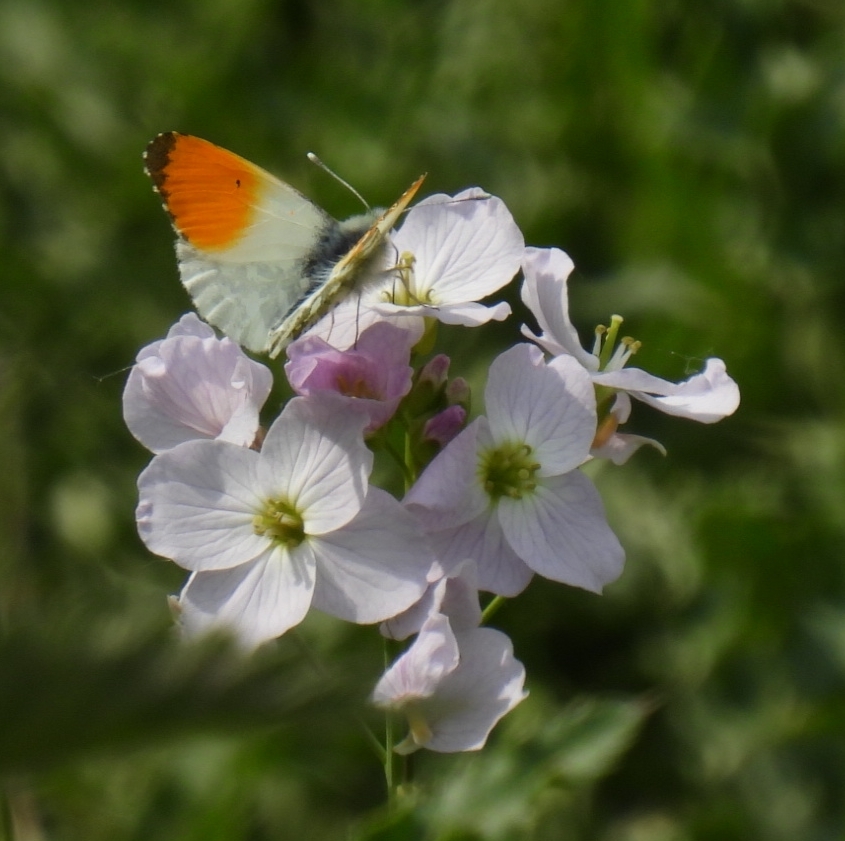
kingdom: Animalia
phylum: Arthropoda
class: Insecta
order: Lepidoptera
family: Pieridae
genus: Anthocharis
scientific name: Anthocharis cardamines
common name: Orange-tip
